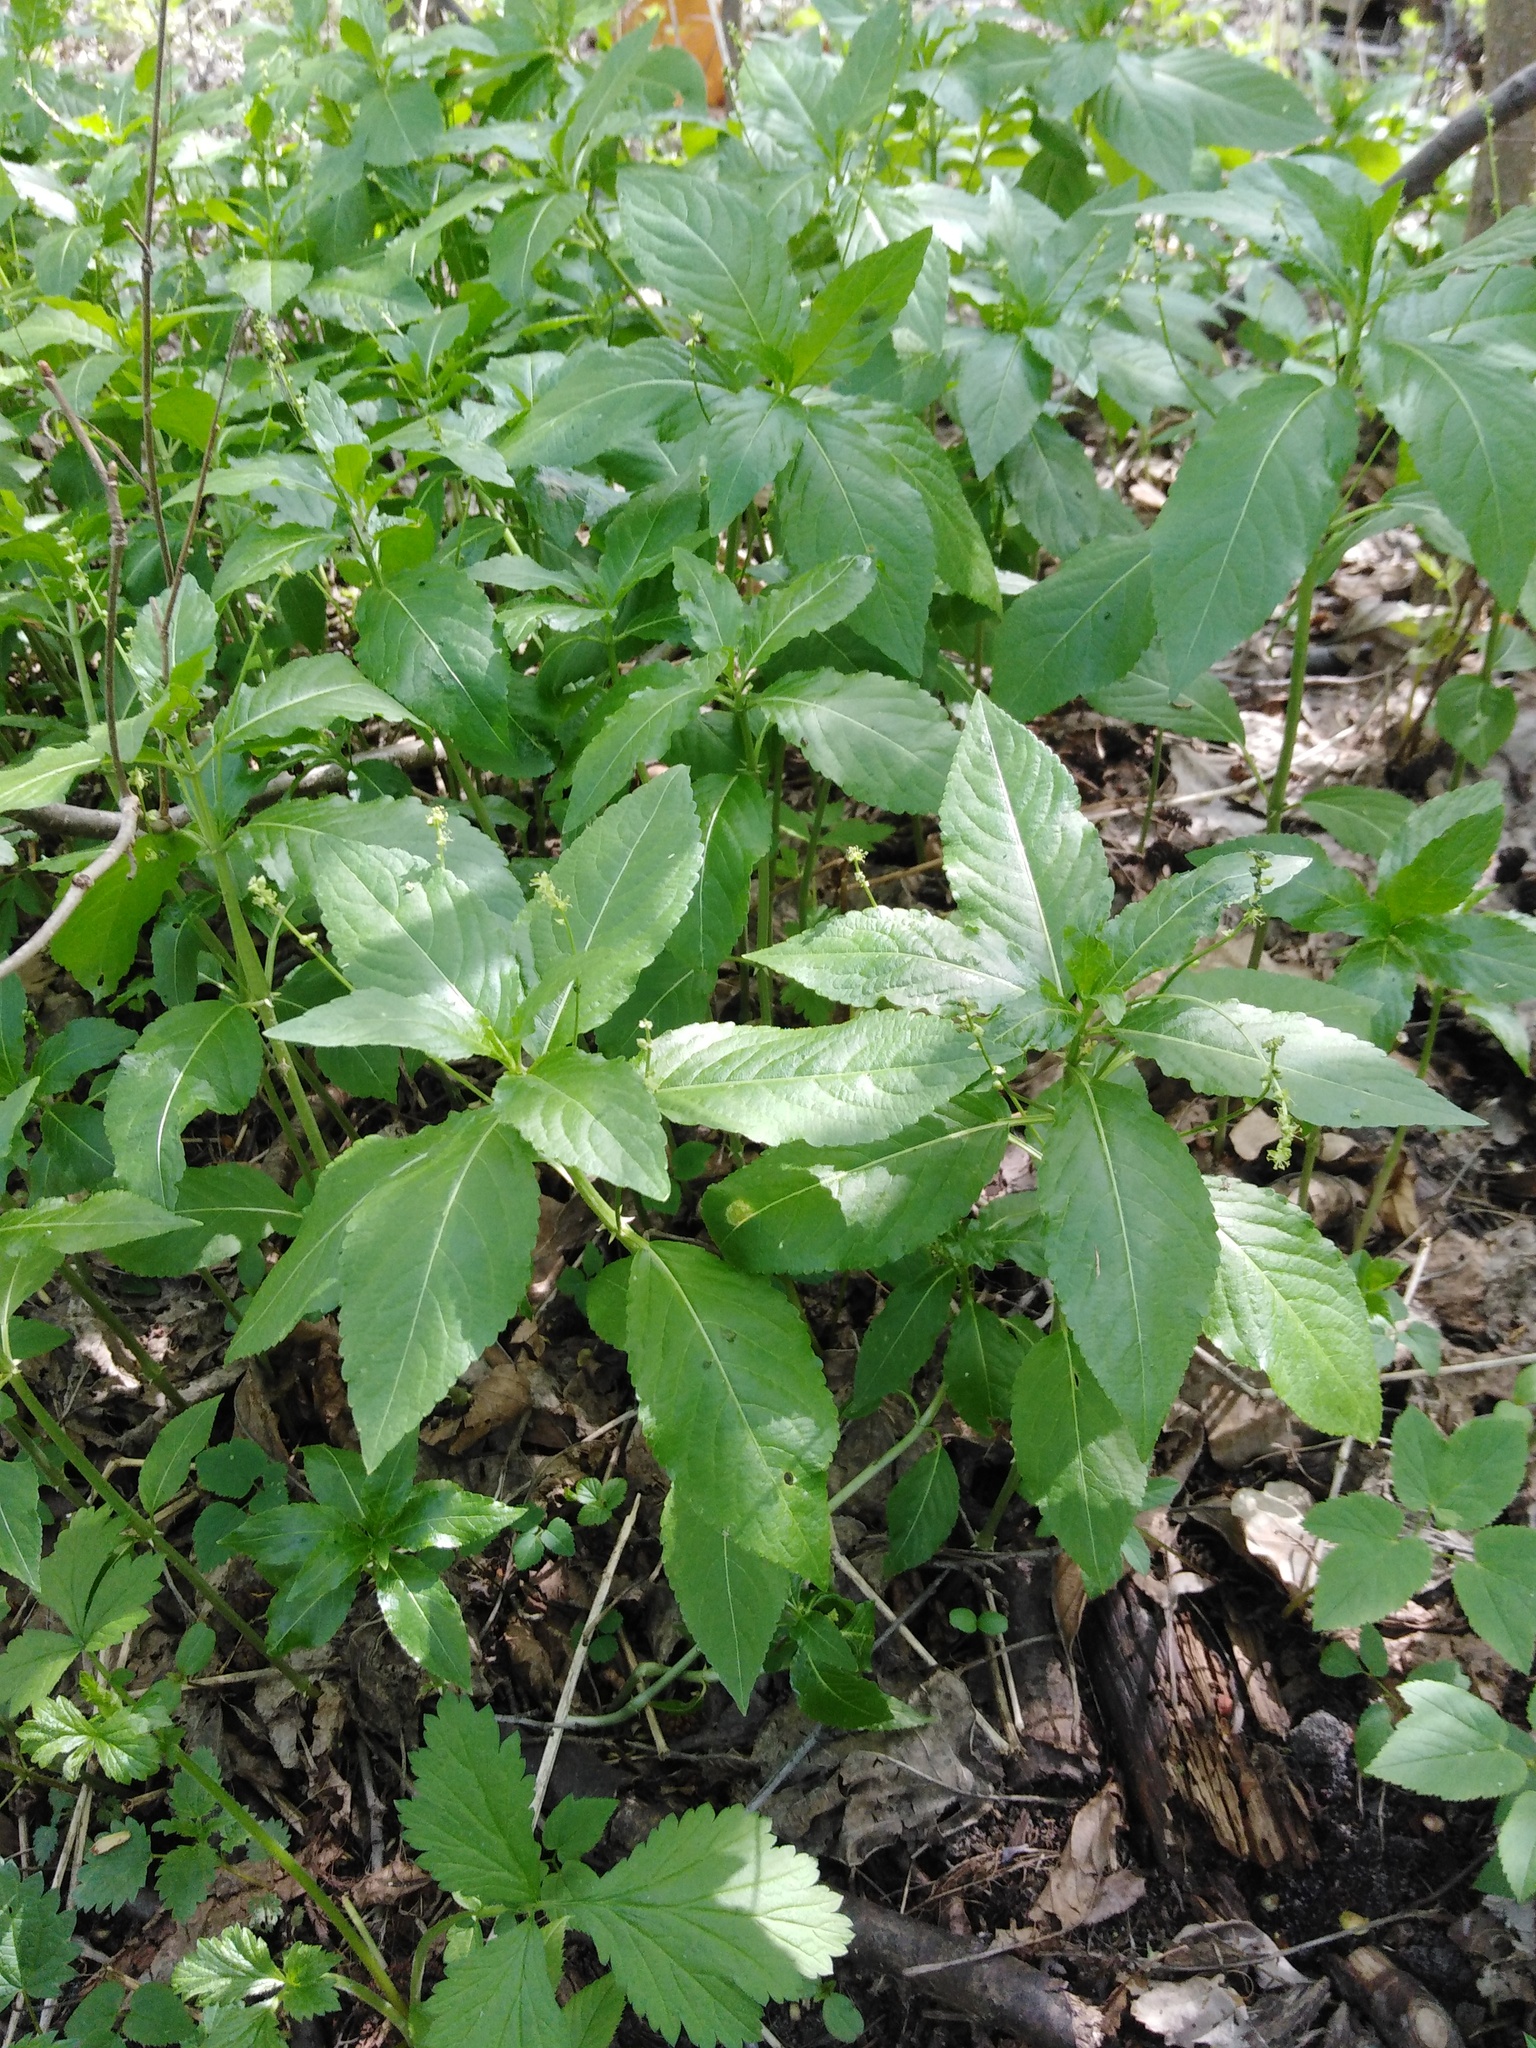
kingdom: Plantae
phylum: Tracheophyta
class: Magnoliopsida
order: Malpighiales
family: Euphorbiaceae
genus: Mercurialis
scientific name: Mercurialis perennis
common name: Dog mercury
